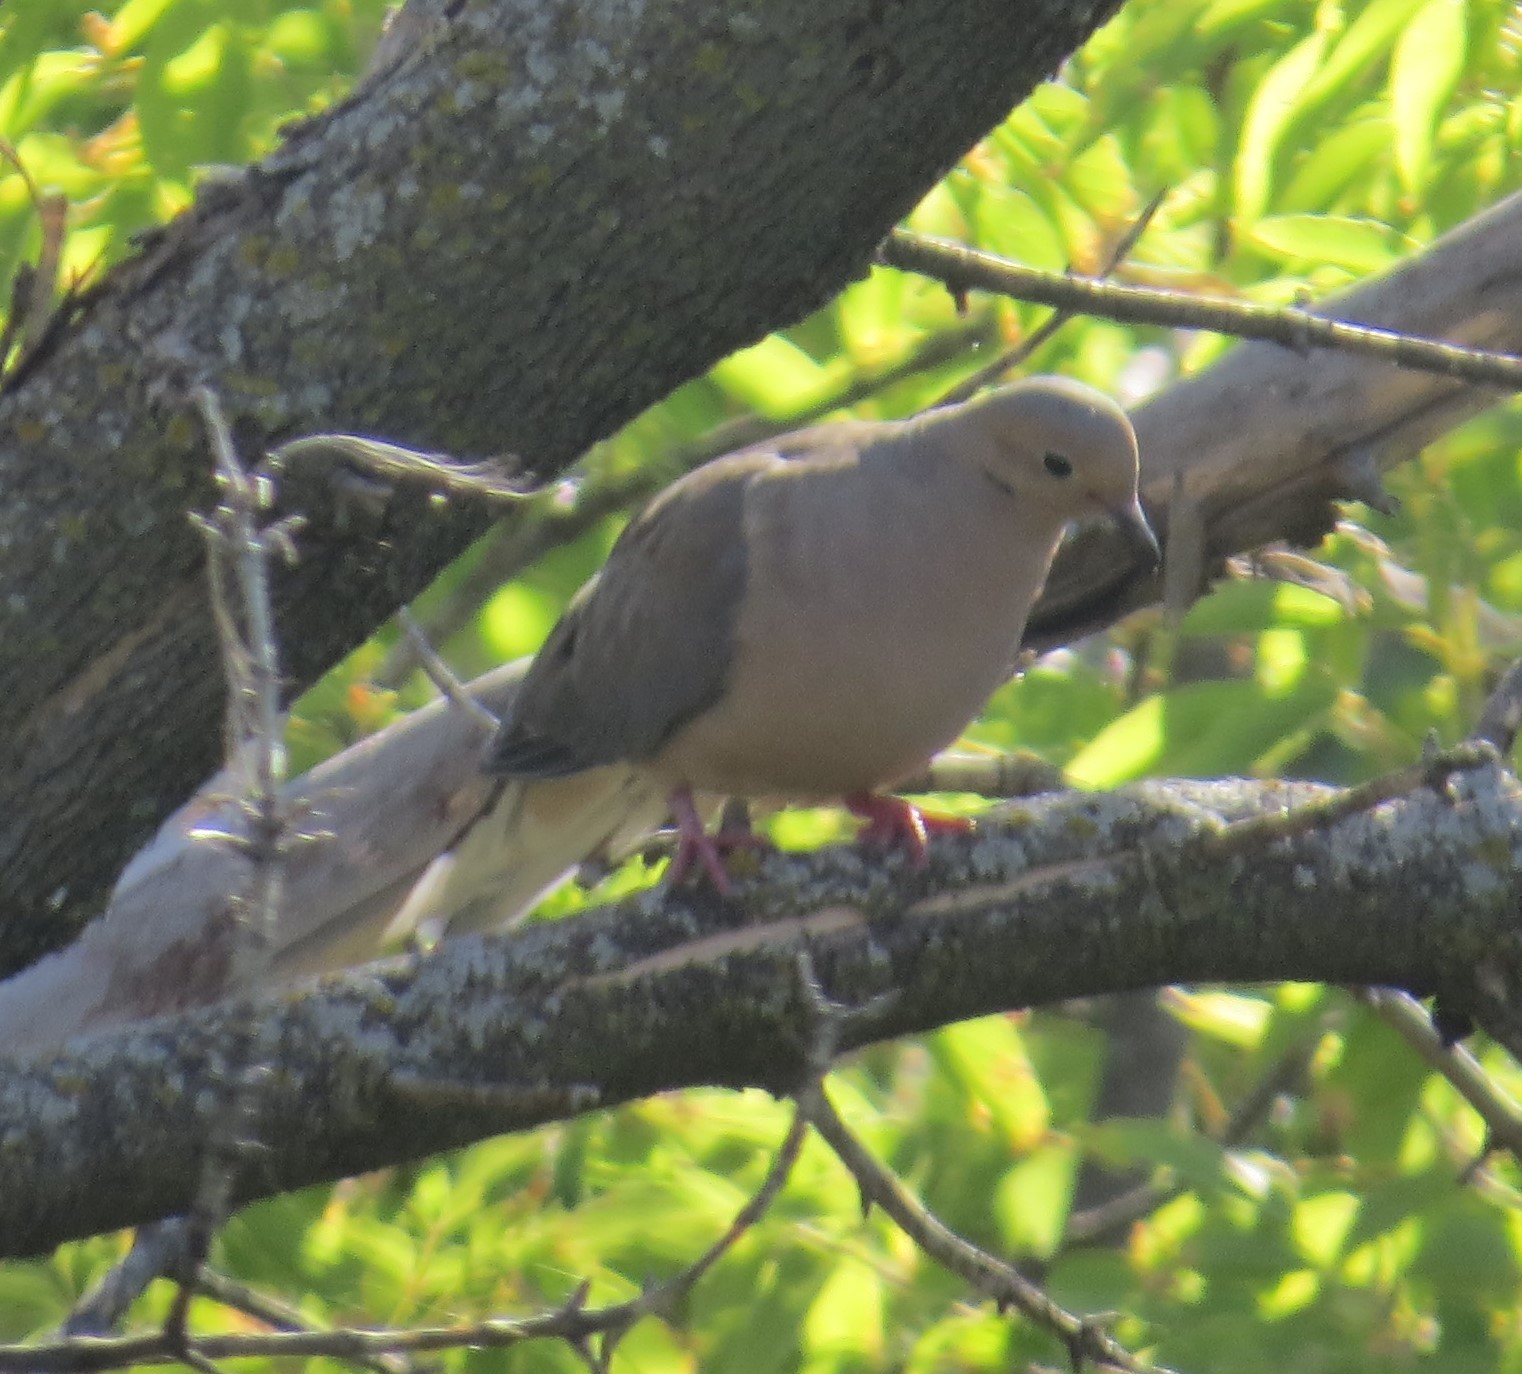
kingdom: Animalia
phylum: Chordata
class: Aves
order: Columbiformes
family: Columbidae
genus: Zenaida
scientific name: Zenaida macroura
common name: Mourning dove
